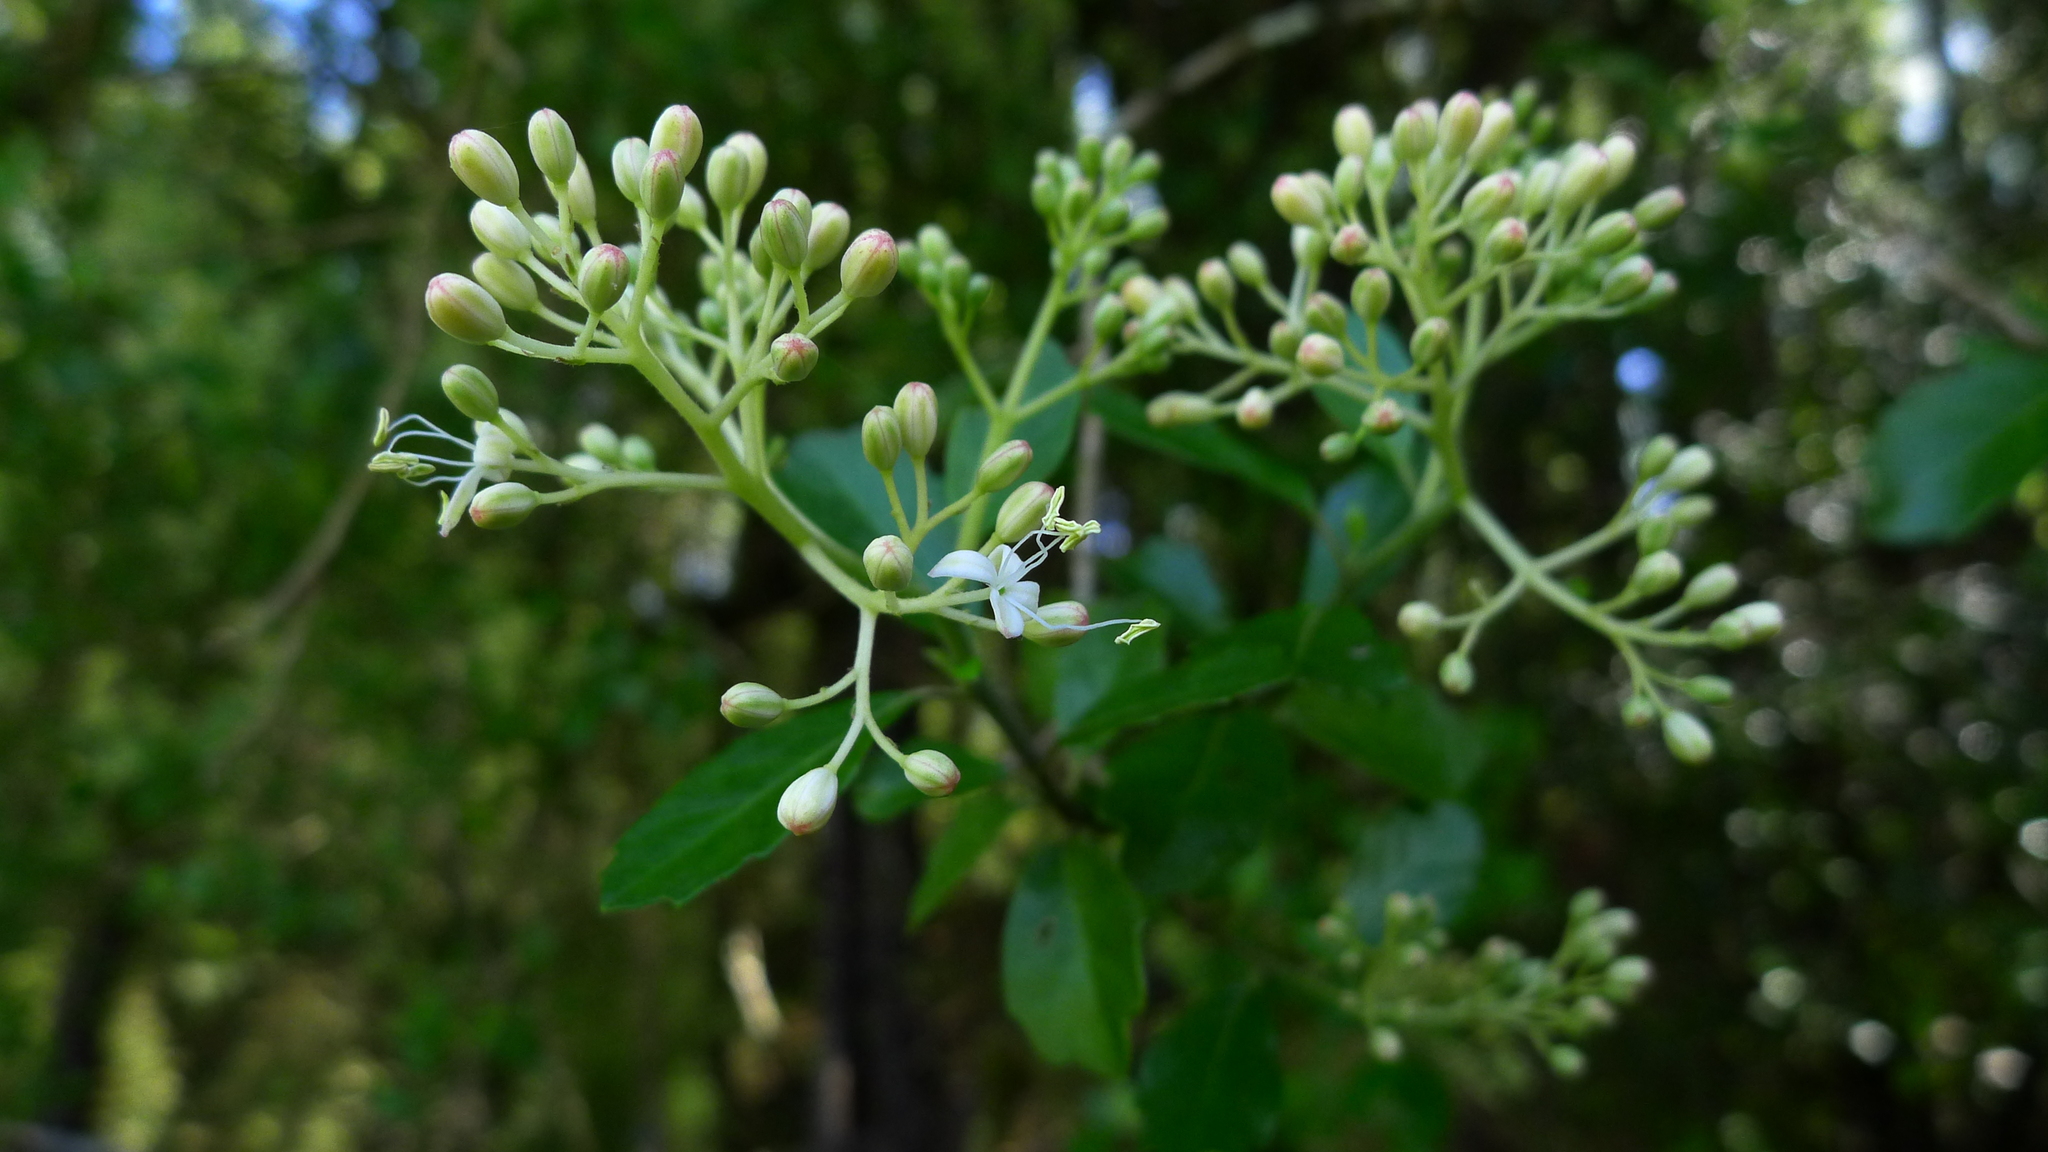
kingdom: Plantae
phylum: Tracheophyta
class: Magnoliopsida
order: Apiales
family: Pennantiaceae
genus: Pennantia
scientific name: Pennantia corymbosa
